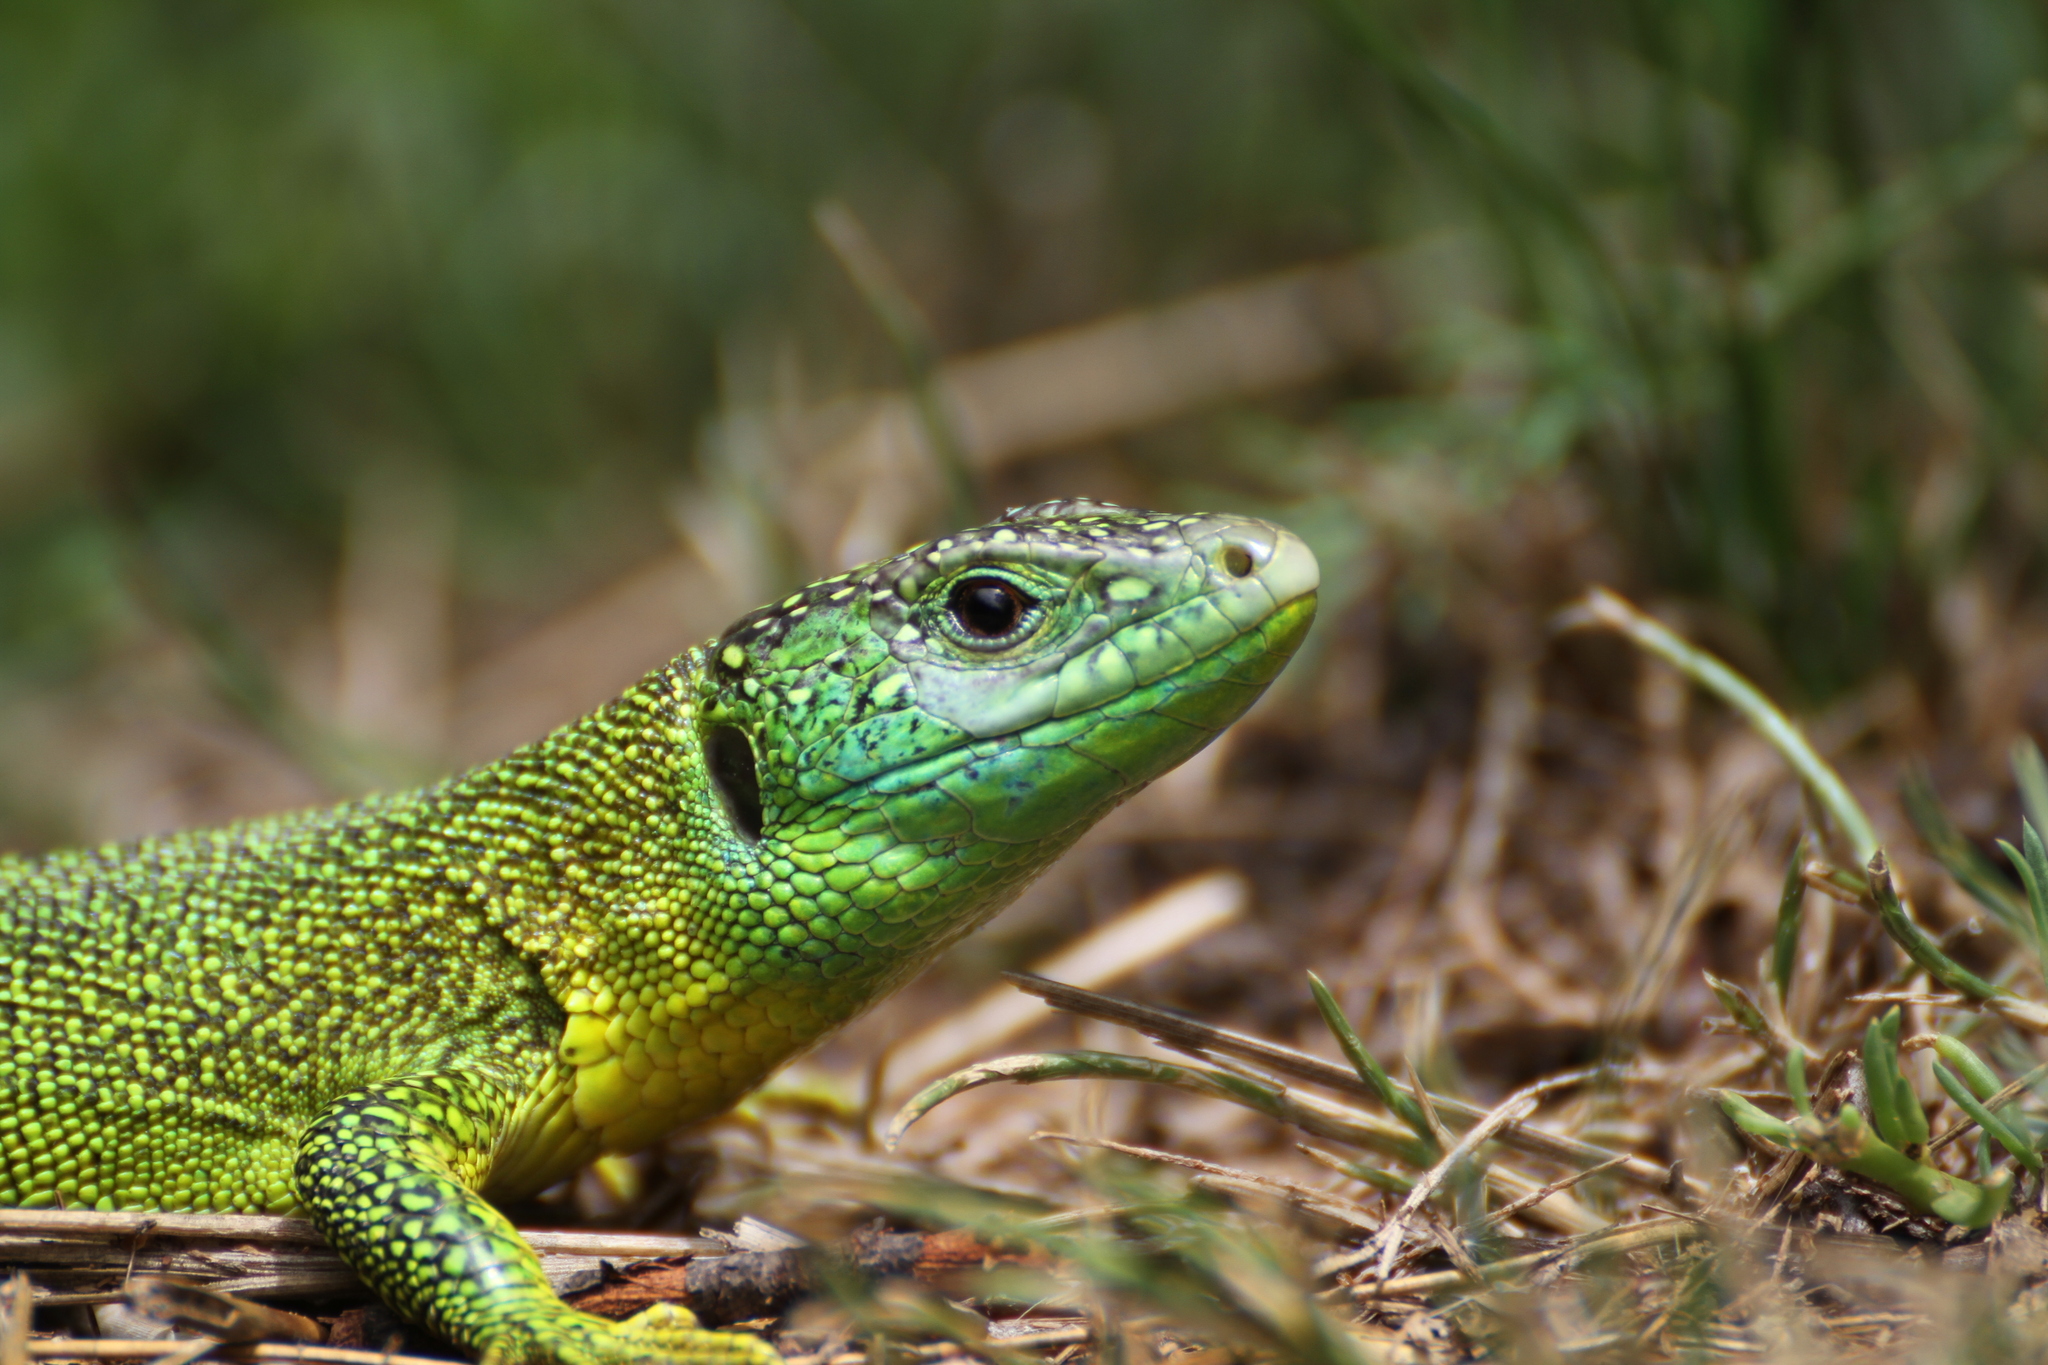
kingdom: Animalia
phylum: Chordata
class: Squamata
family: Lacertidae
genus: Lacerta
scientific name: Lacerta bilineata
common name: Western green lizard
